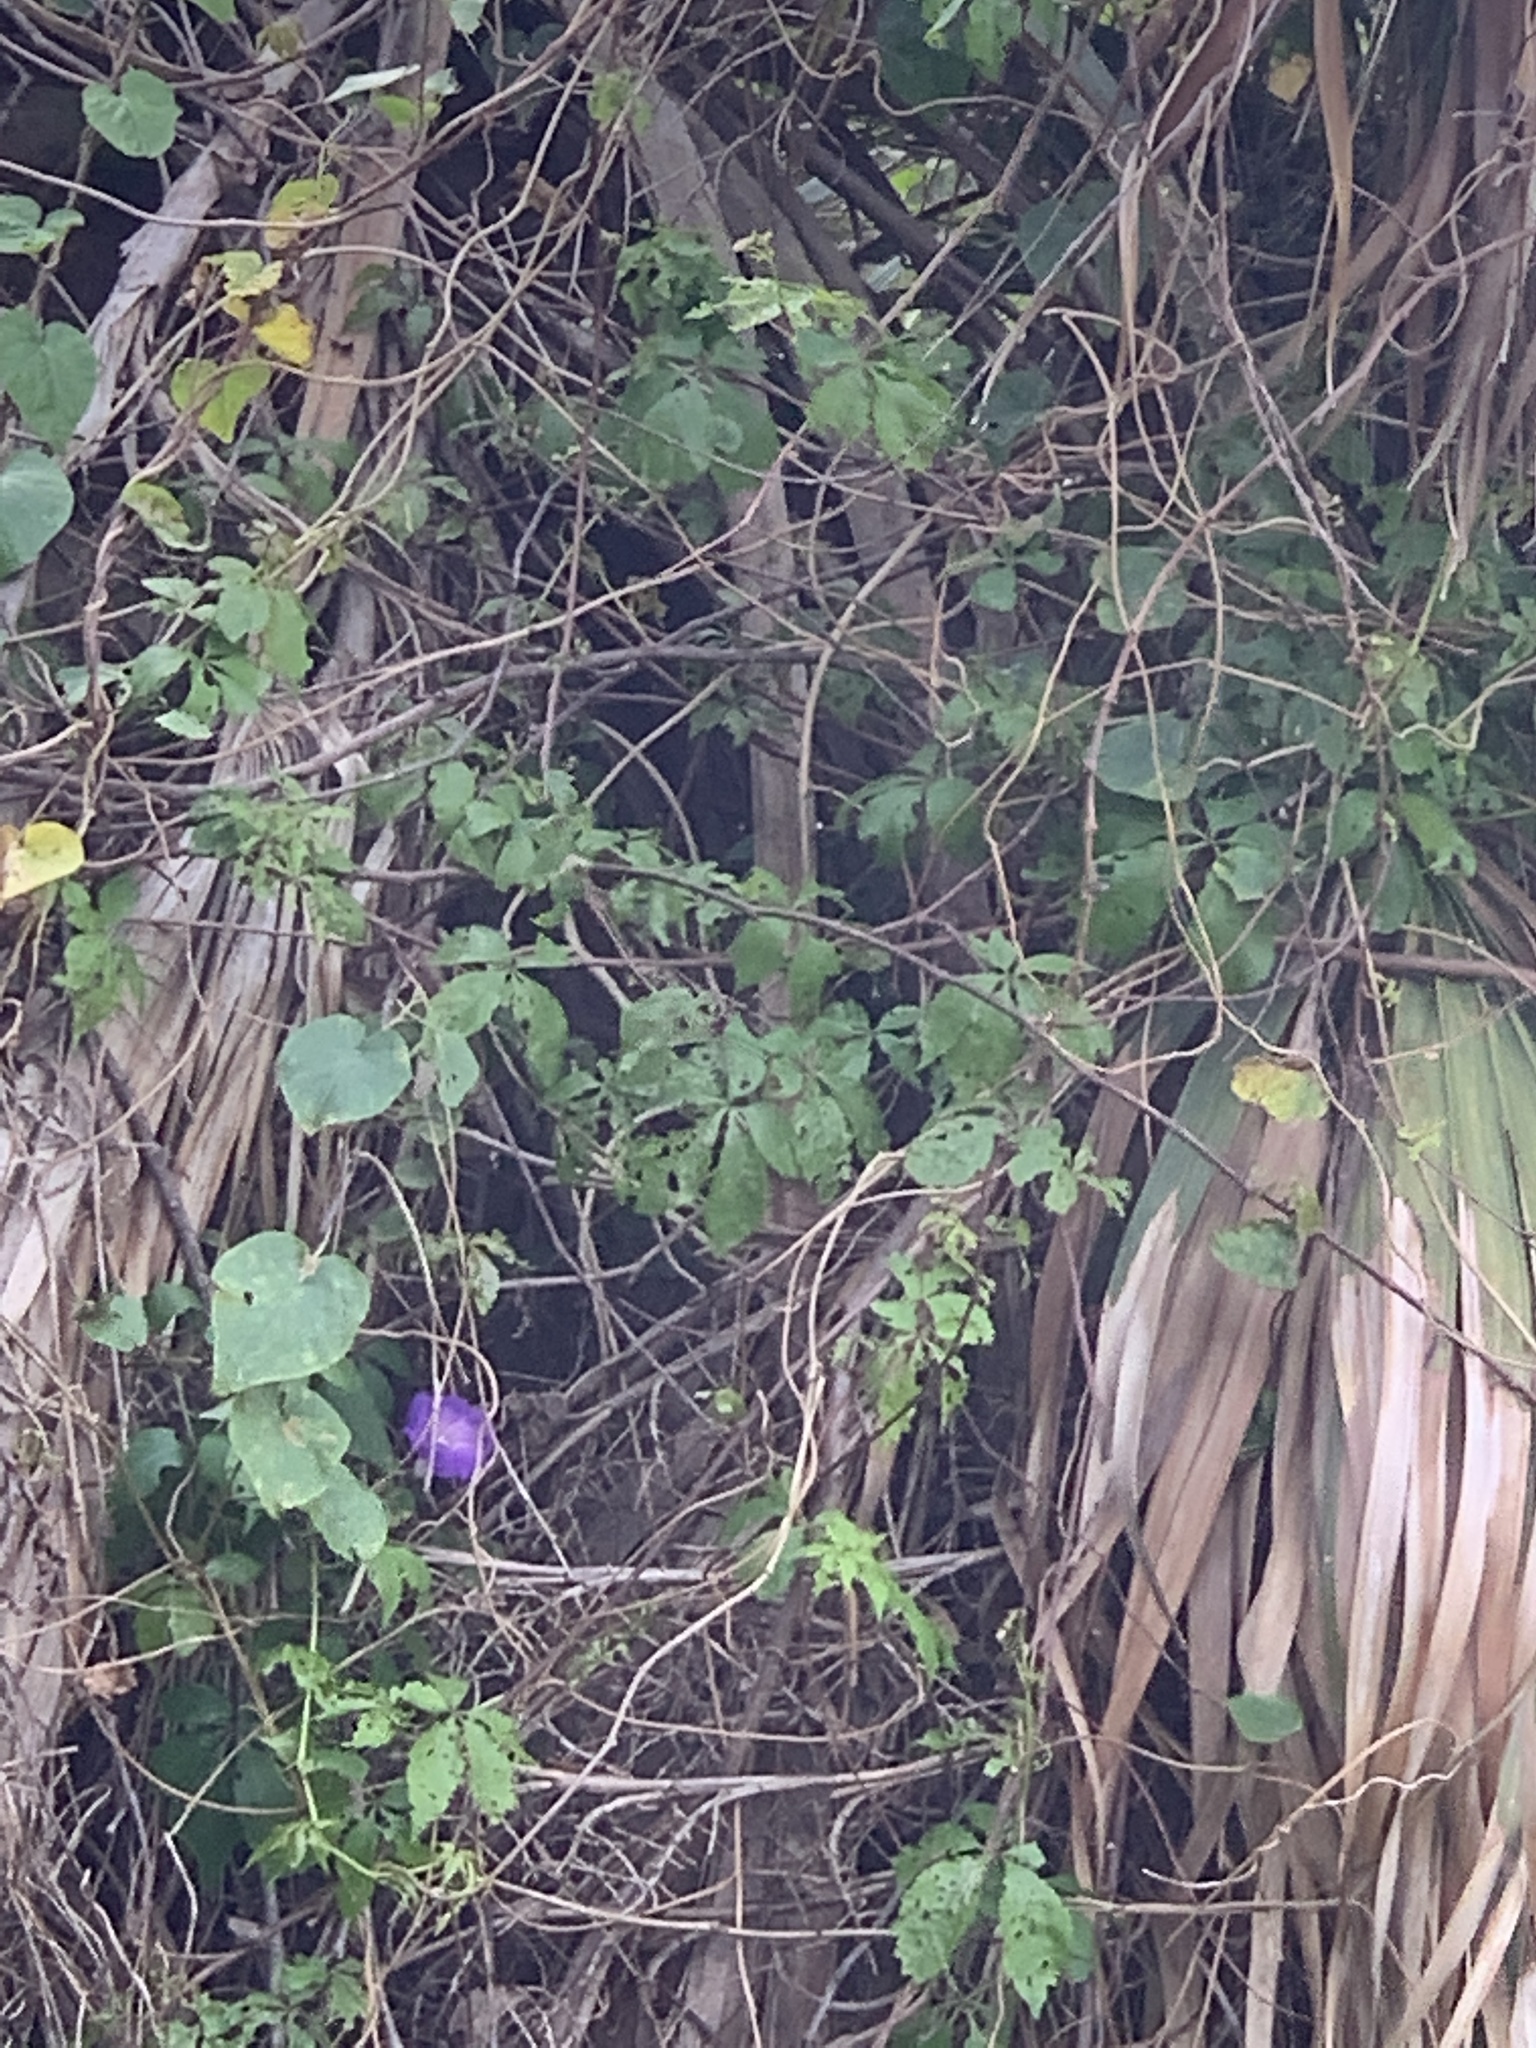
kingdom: Plantae
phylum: Tracheophyta
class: Magnoliopsida
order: Solanales
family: Convolvulaceae
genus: Ipomoea
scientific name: Ipomoea indica
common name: Blue dawnflower
